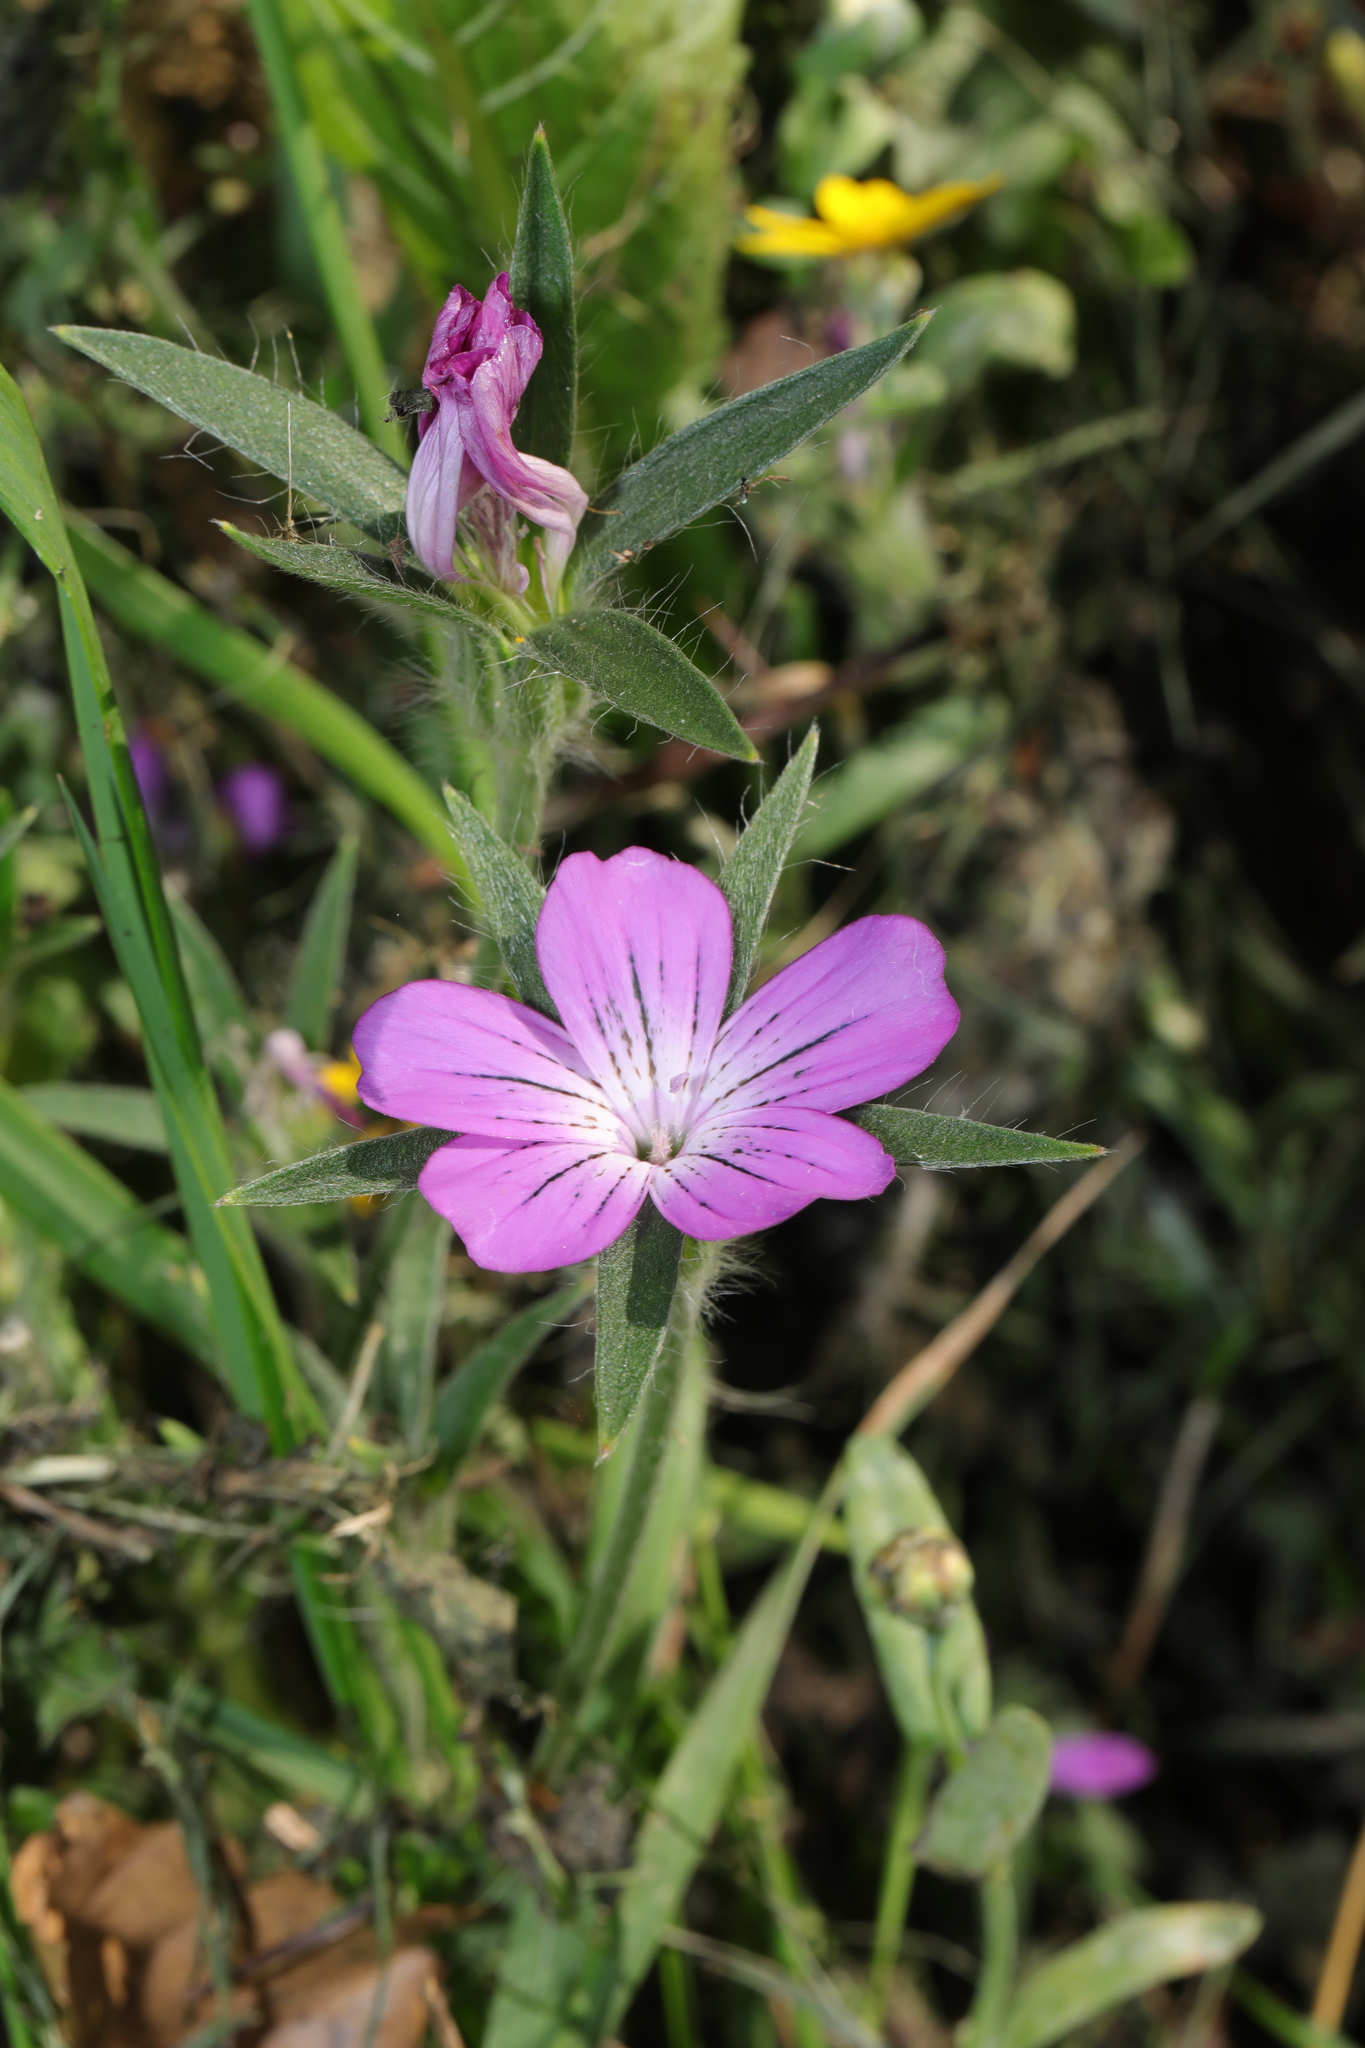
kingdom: Plantae
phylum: Tracheophyta
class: Magnoliopsida
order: Caryophyllales
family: Caryophyllaceae
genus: Agrostemma
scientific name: Agrostemma githago
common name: Common corncockle
